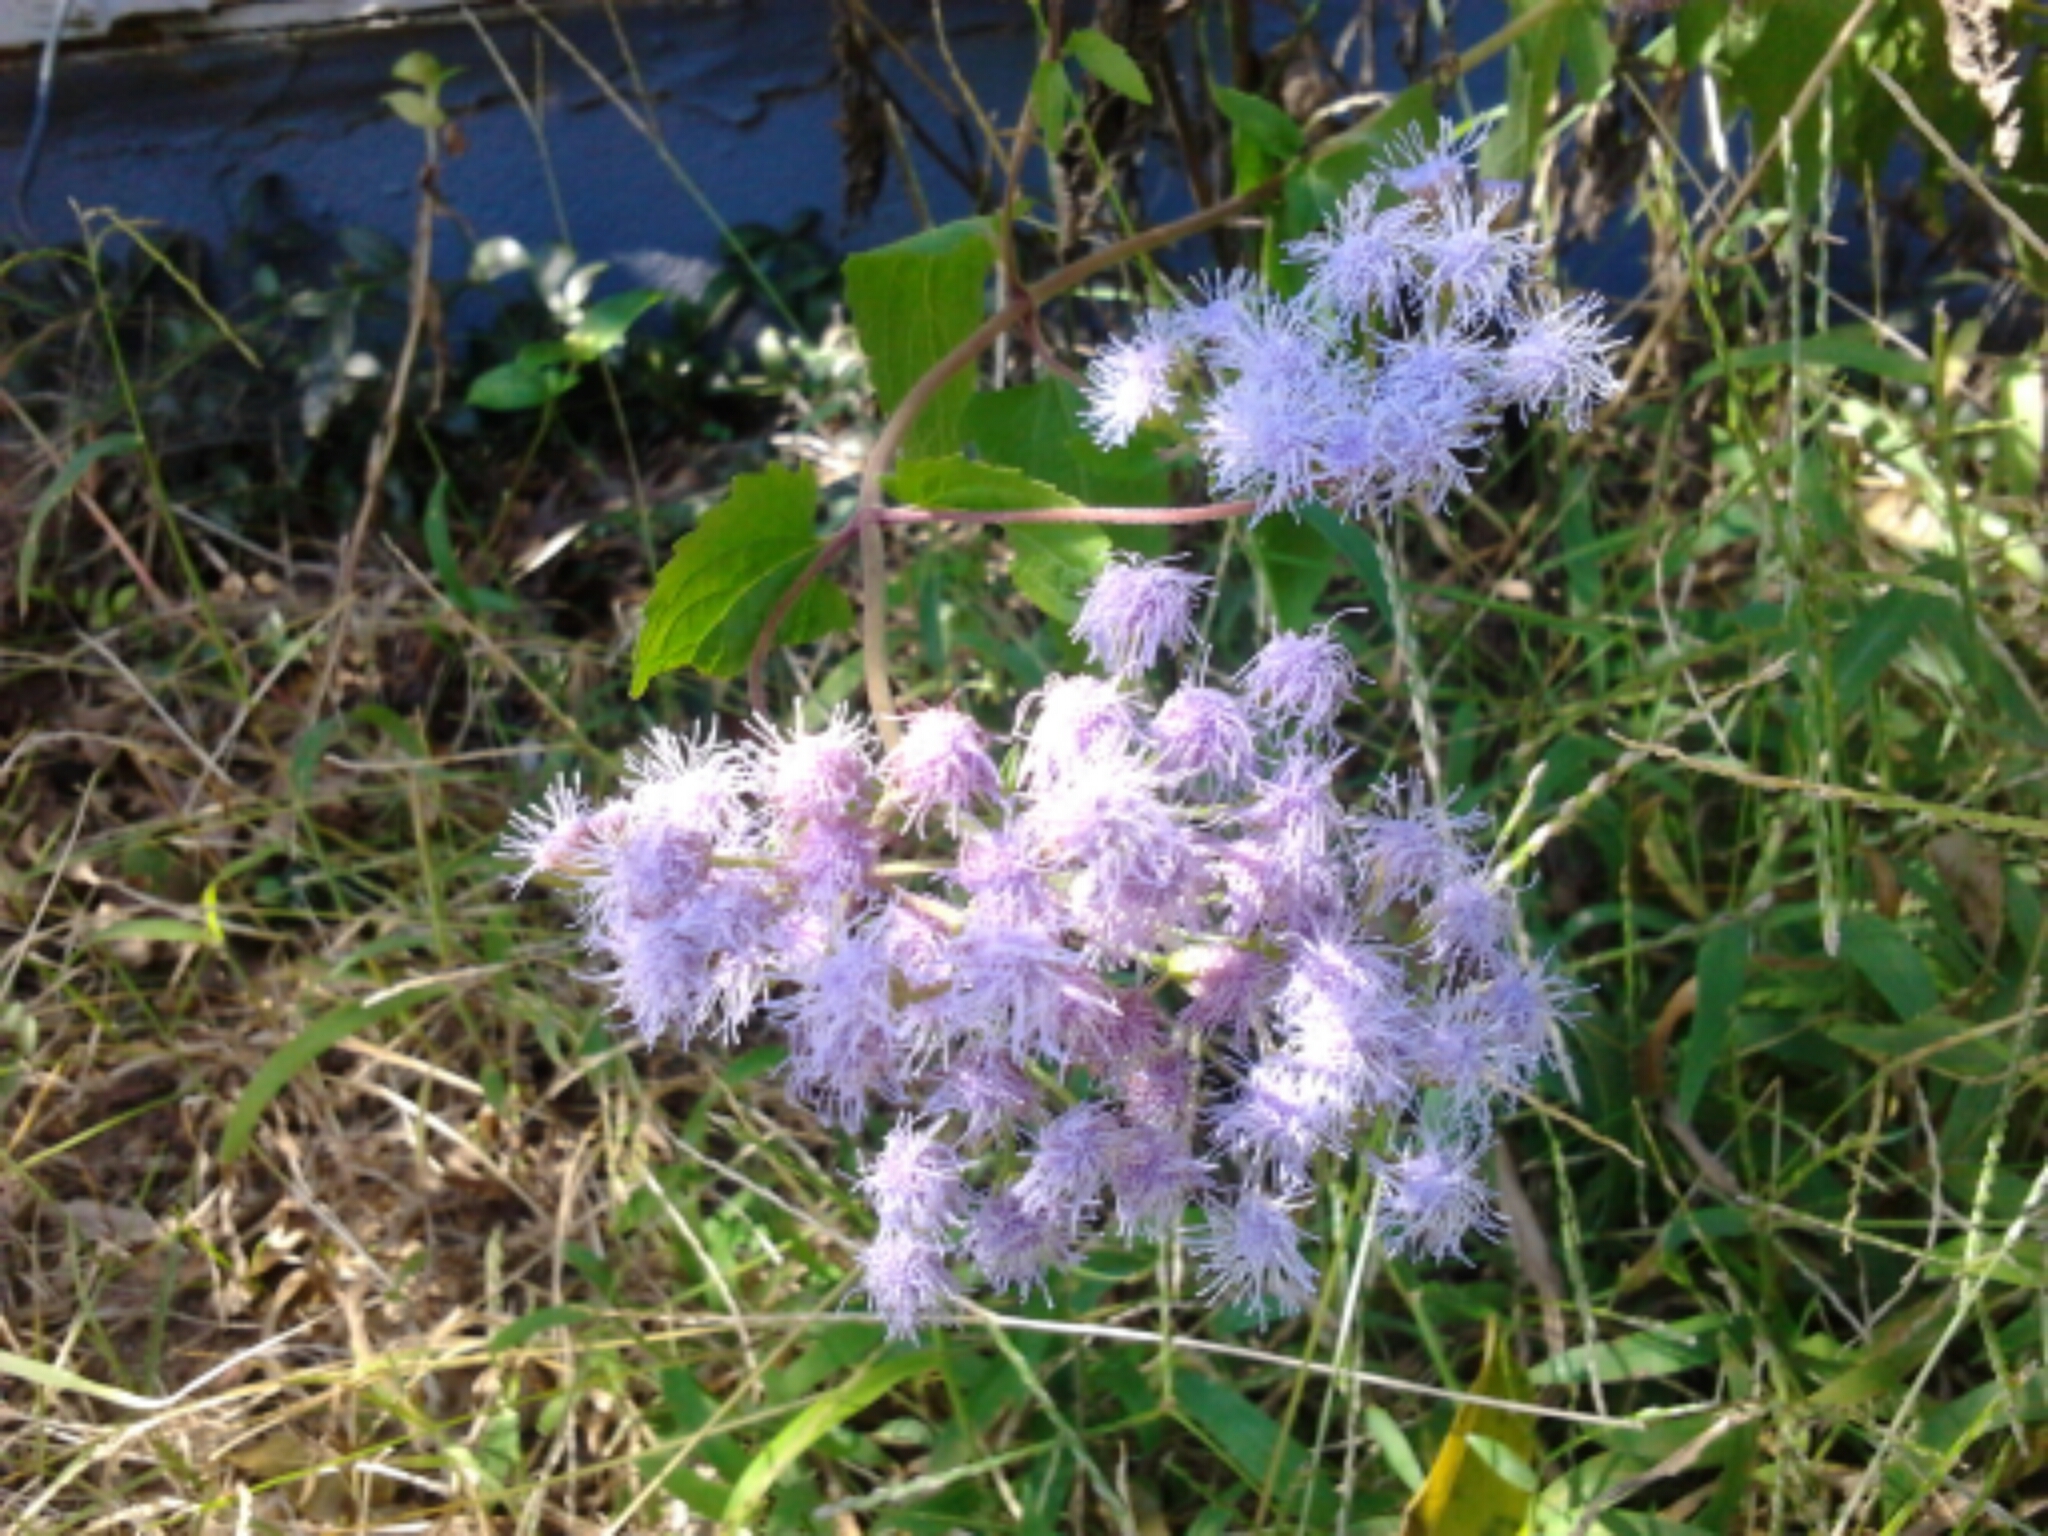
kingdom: Plantae
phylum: Tracheophyta
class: Magnoliopsida
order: Asterales
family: Asteraceae
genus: Conoclinium
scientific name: Conoclinium coelestinum
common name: Blue mistflower
